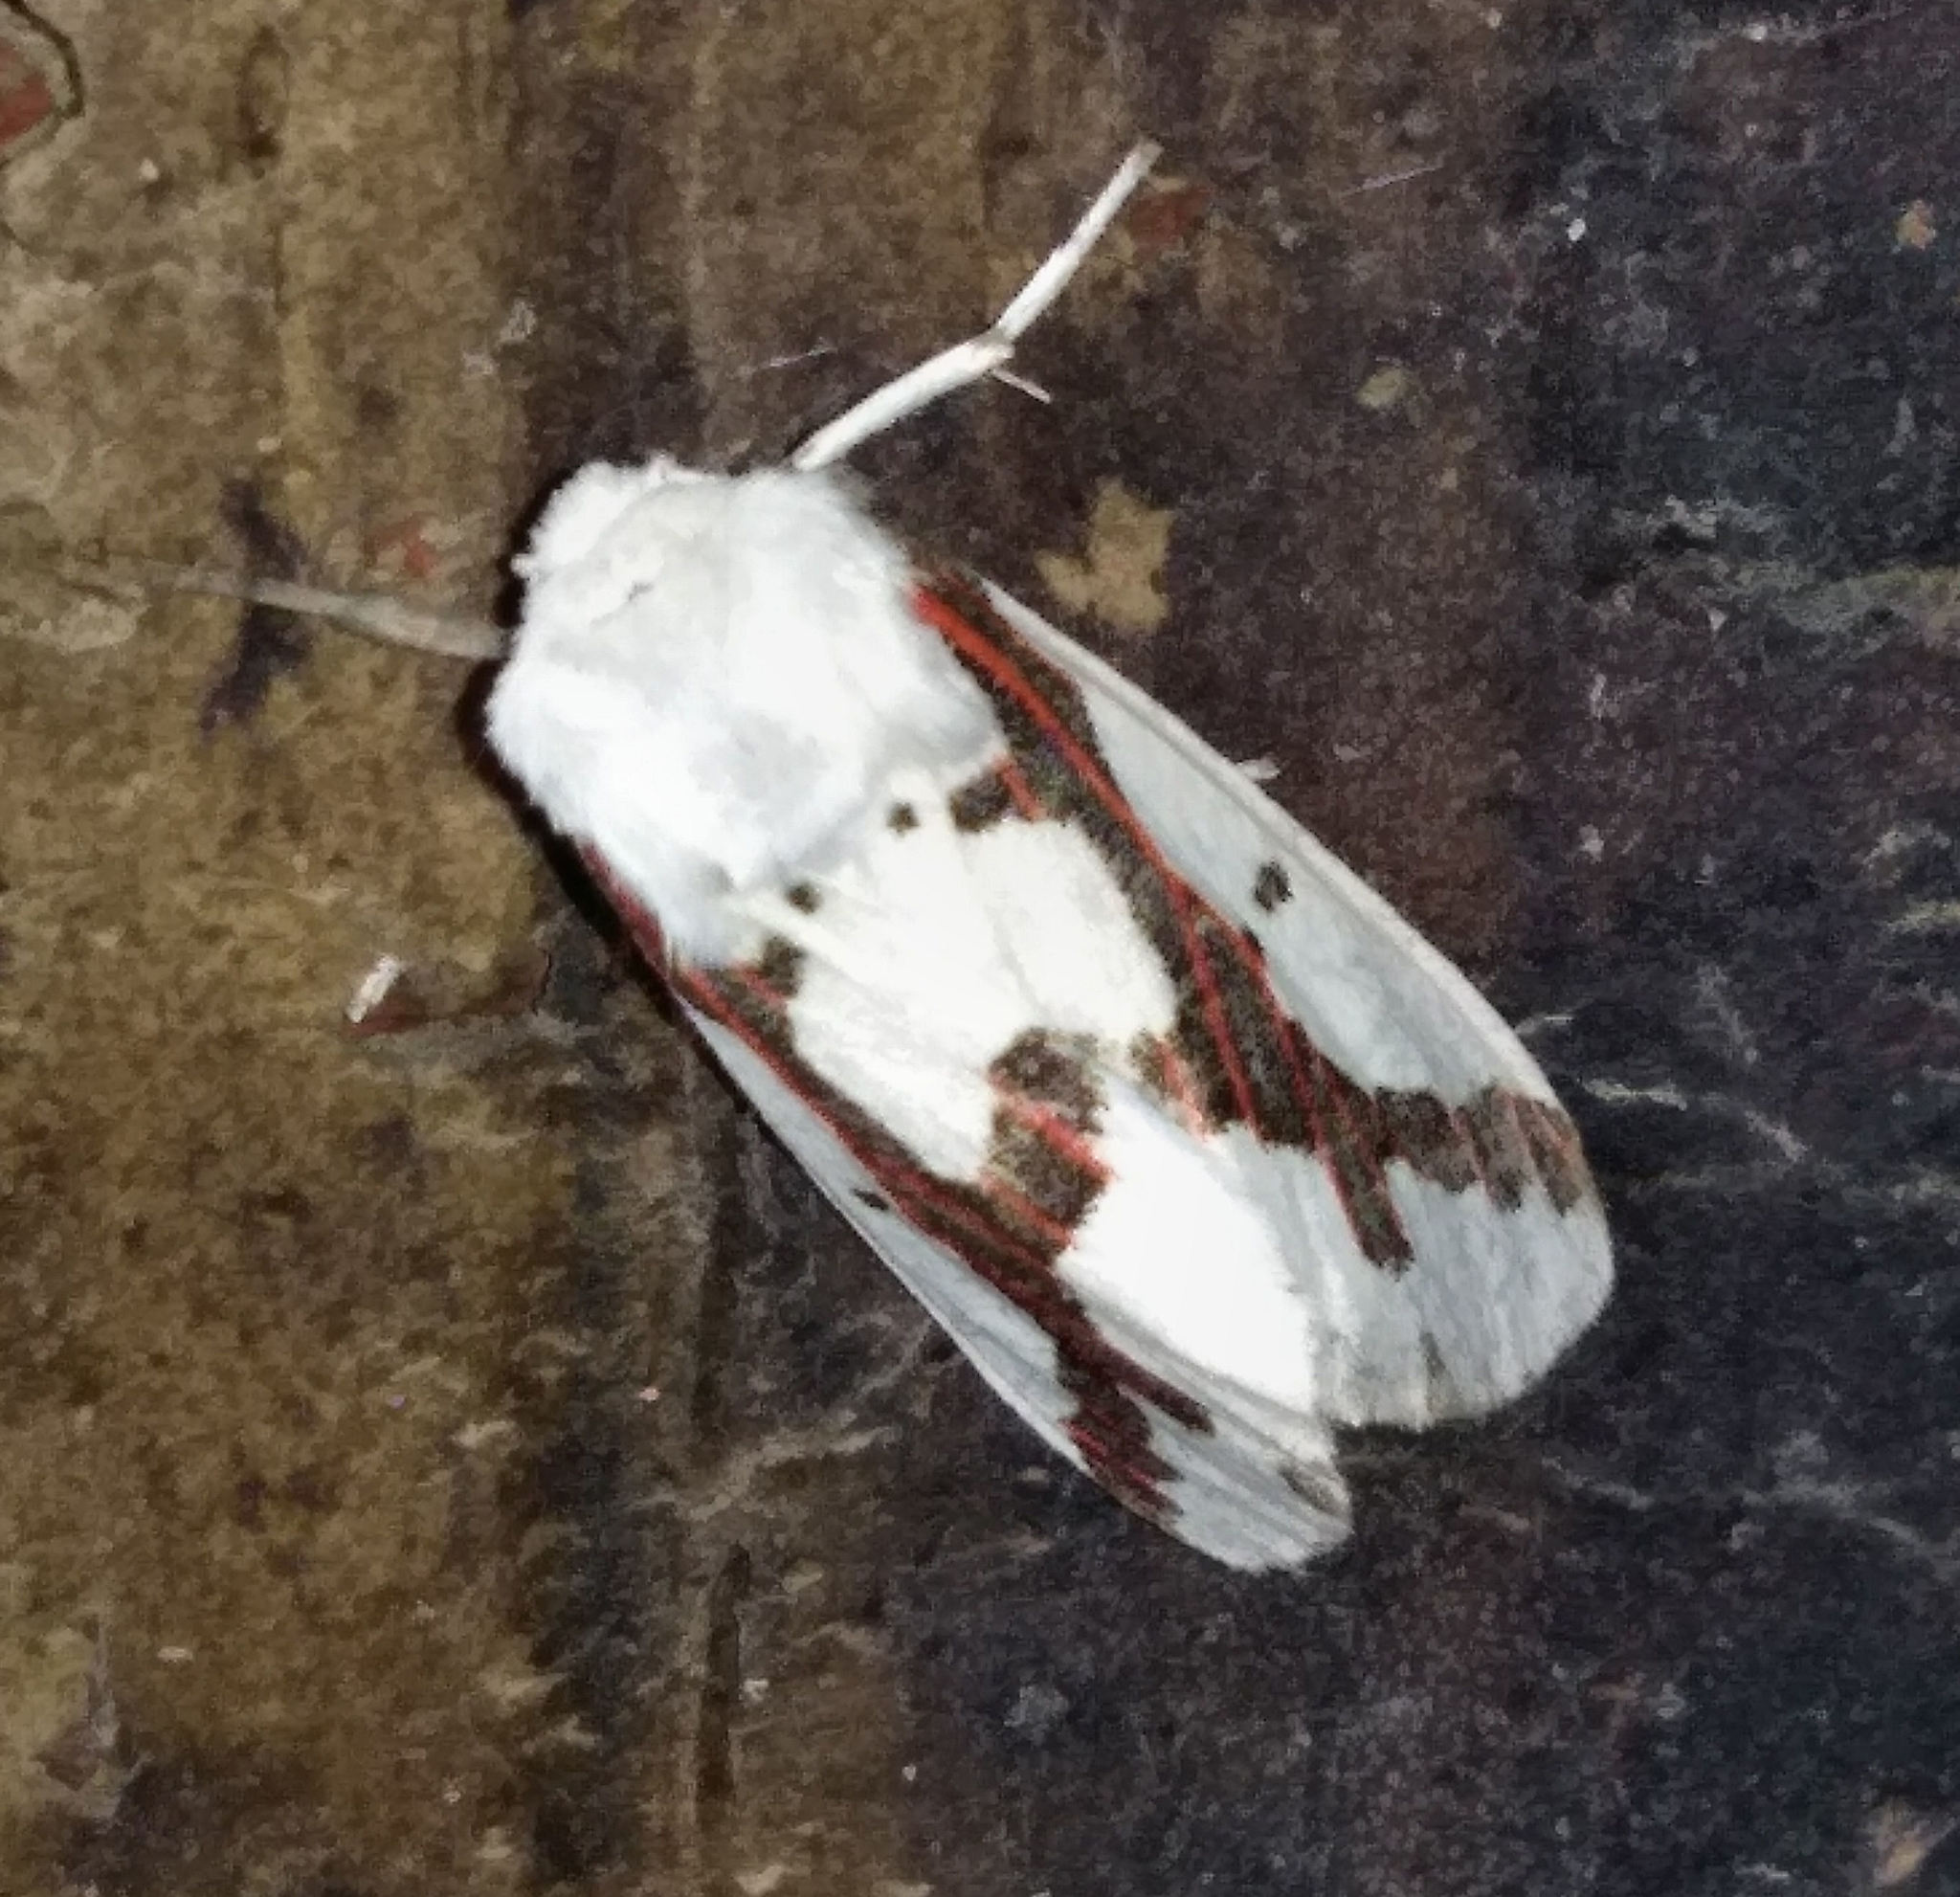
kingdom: Animalia
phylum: Arthropoda
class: Insecta
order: Lepidoptera
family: Erebidae
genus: Euerythra
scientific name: Euerythra phasma
